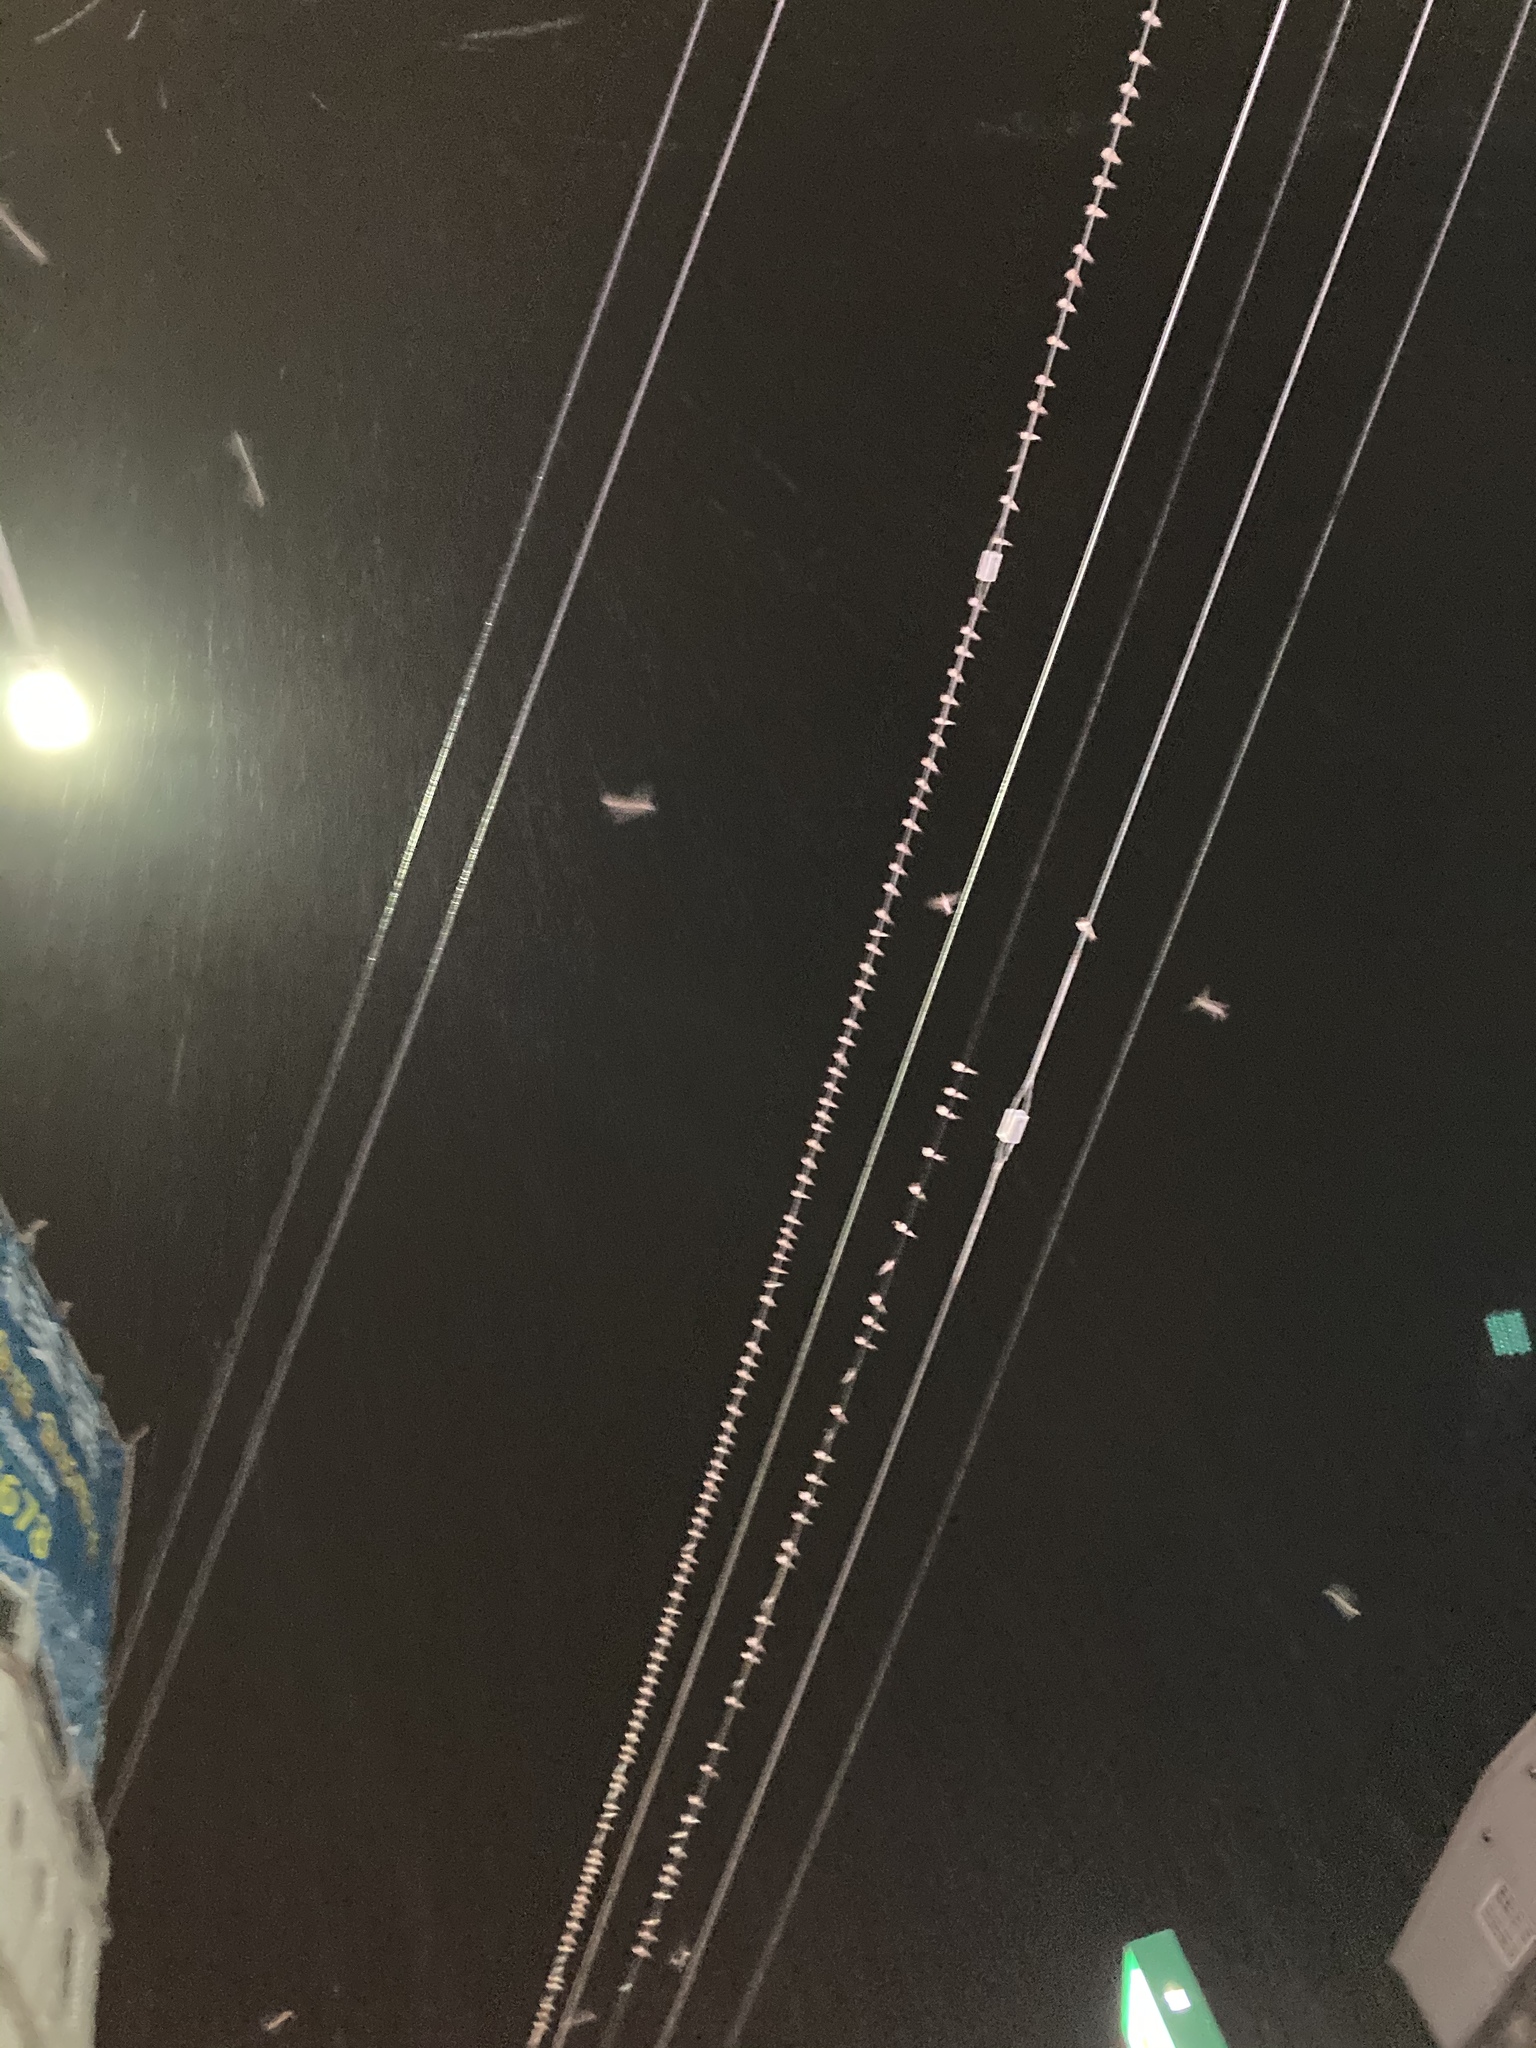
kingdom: Animalia
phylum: Chordata
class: Aves
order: Passeriformes
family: Hirundinidae
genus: Hirundo
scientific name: Hirundo rustica
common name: Barn swallow
